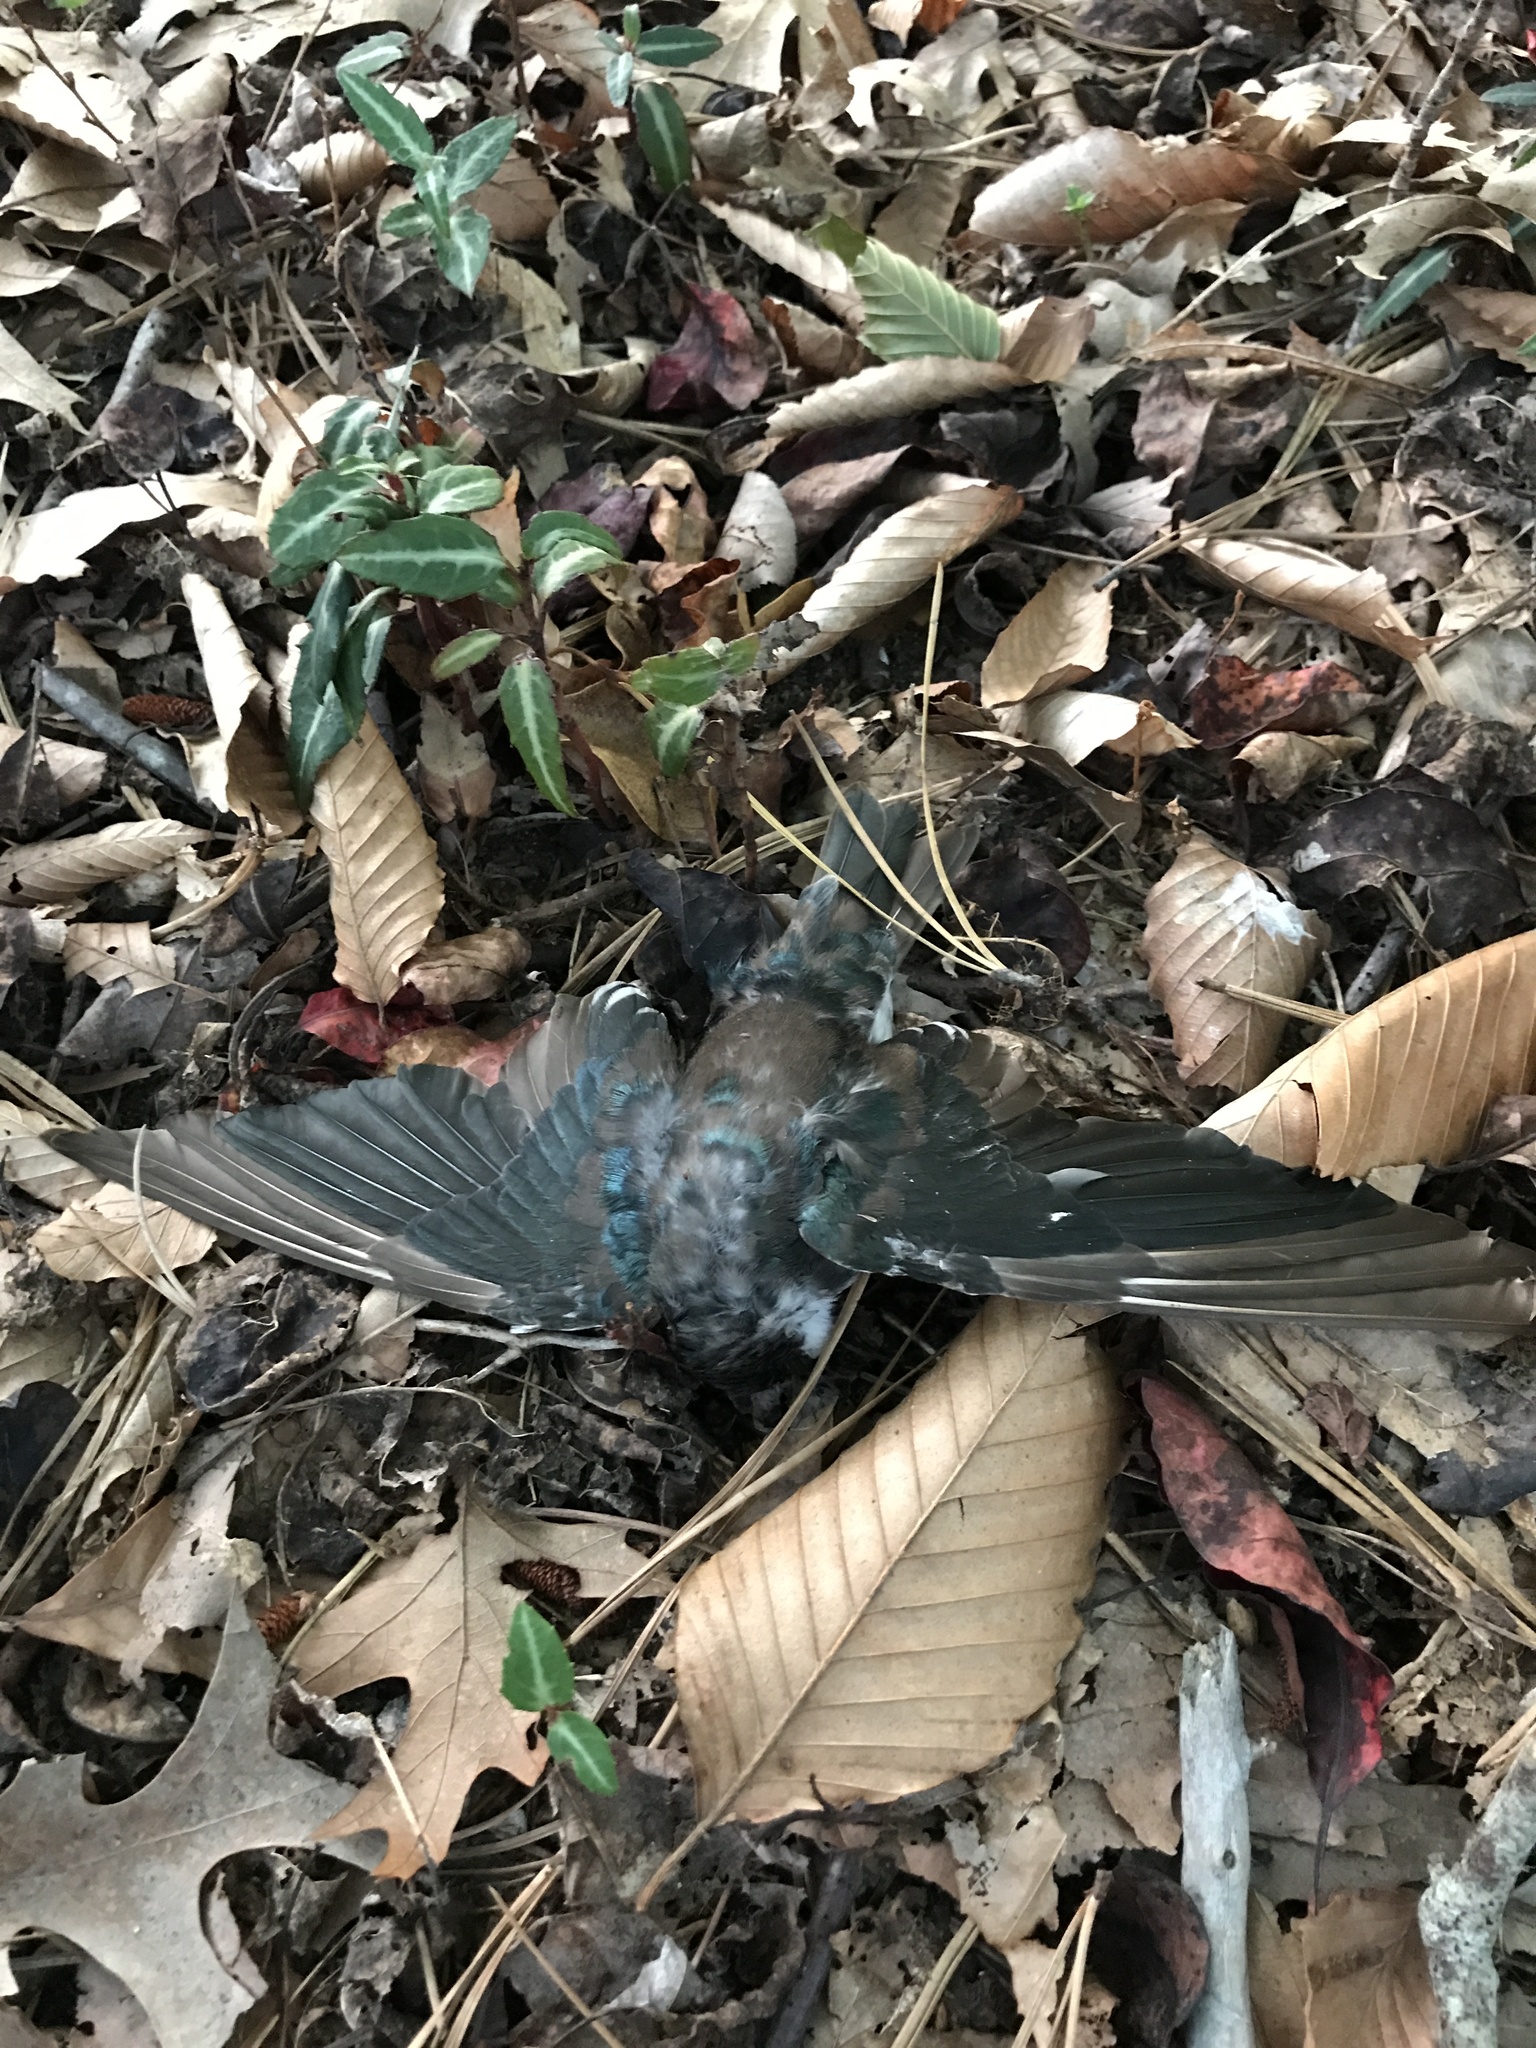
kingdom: Animalia
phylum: Chordata
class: Aves
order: Passeriformes
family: Hirundinidae
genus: Tachycineta
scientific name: Tachycineta bicolor
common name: Tree swallow
